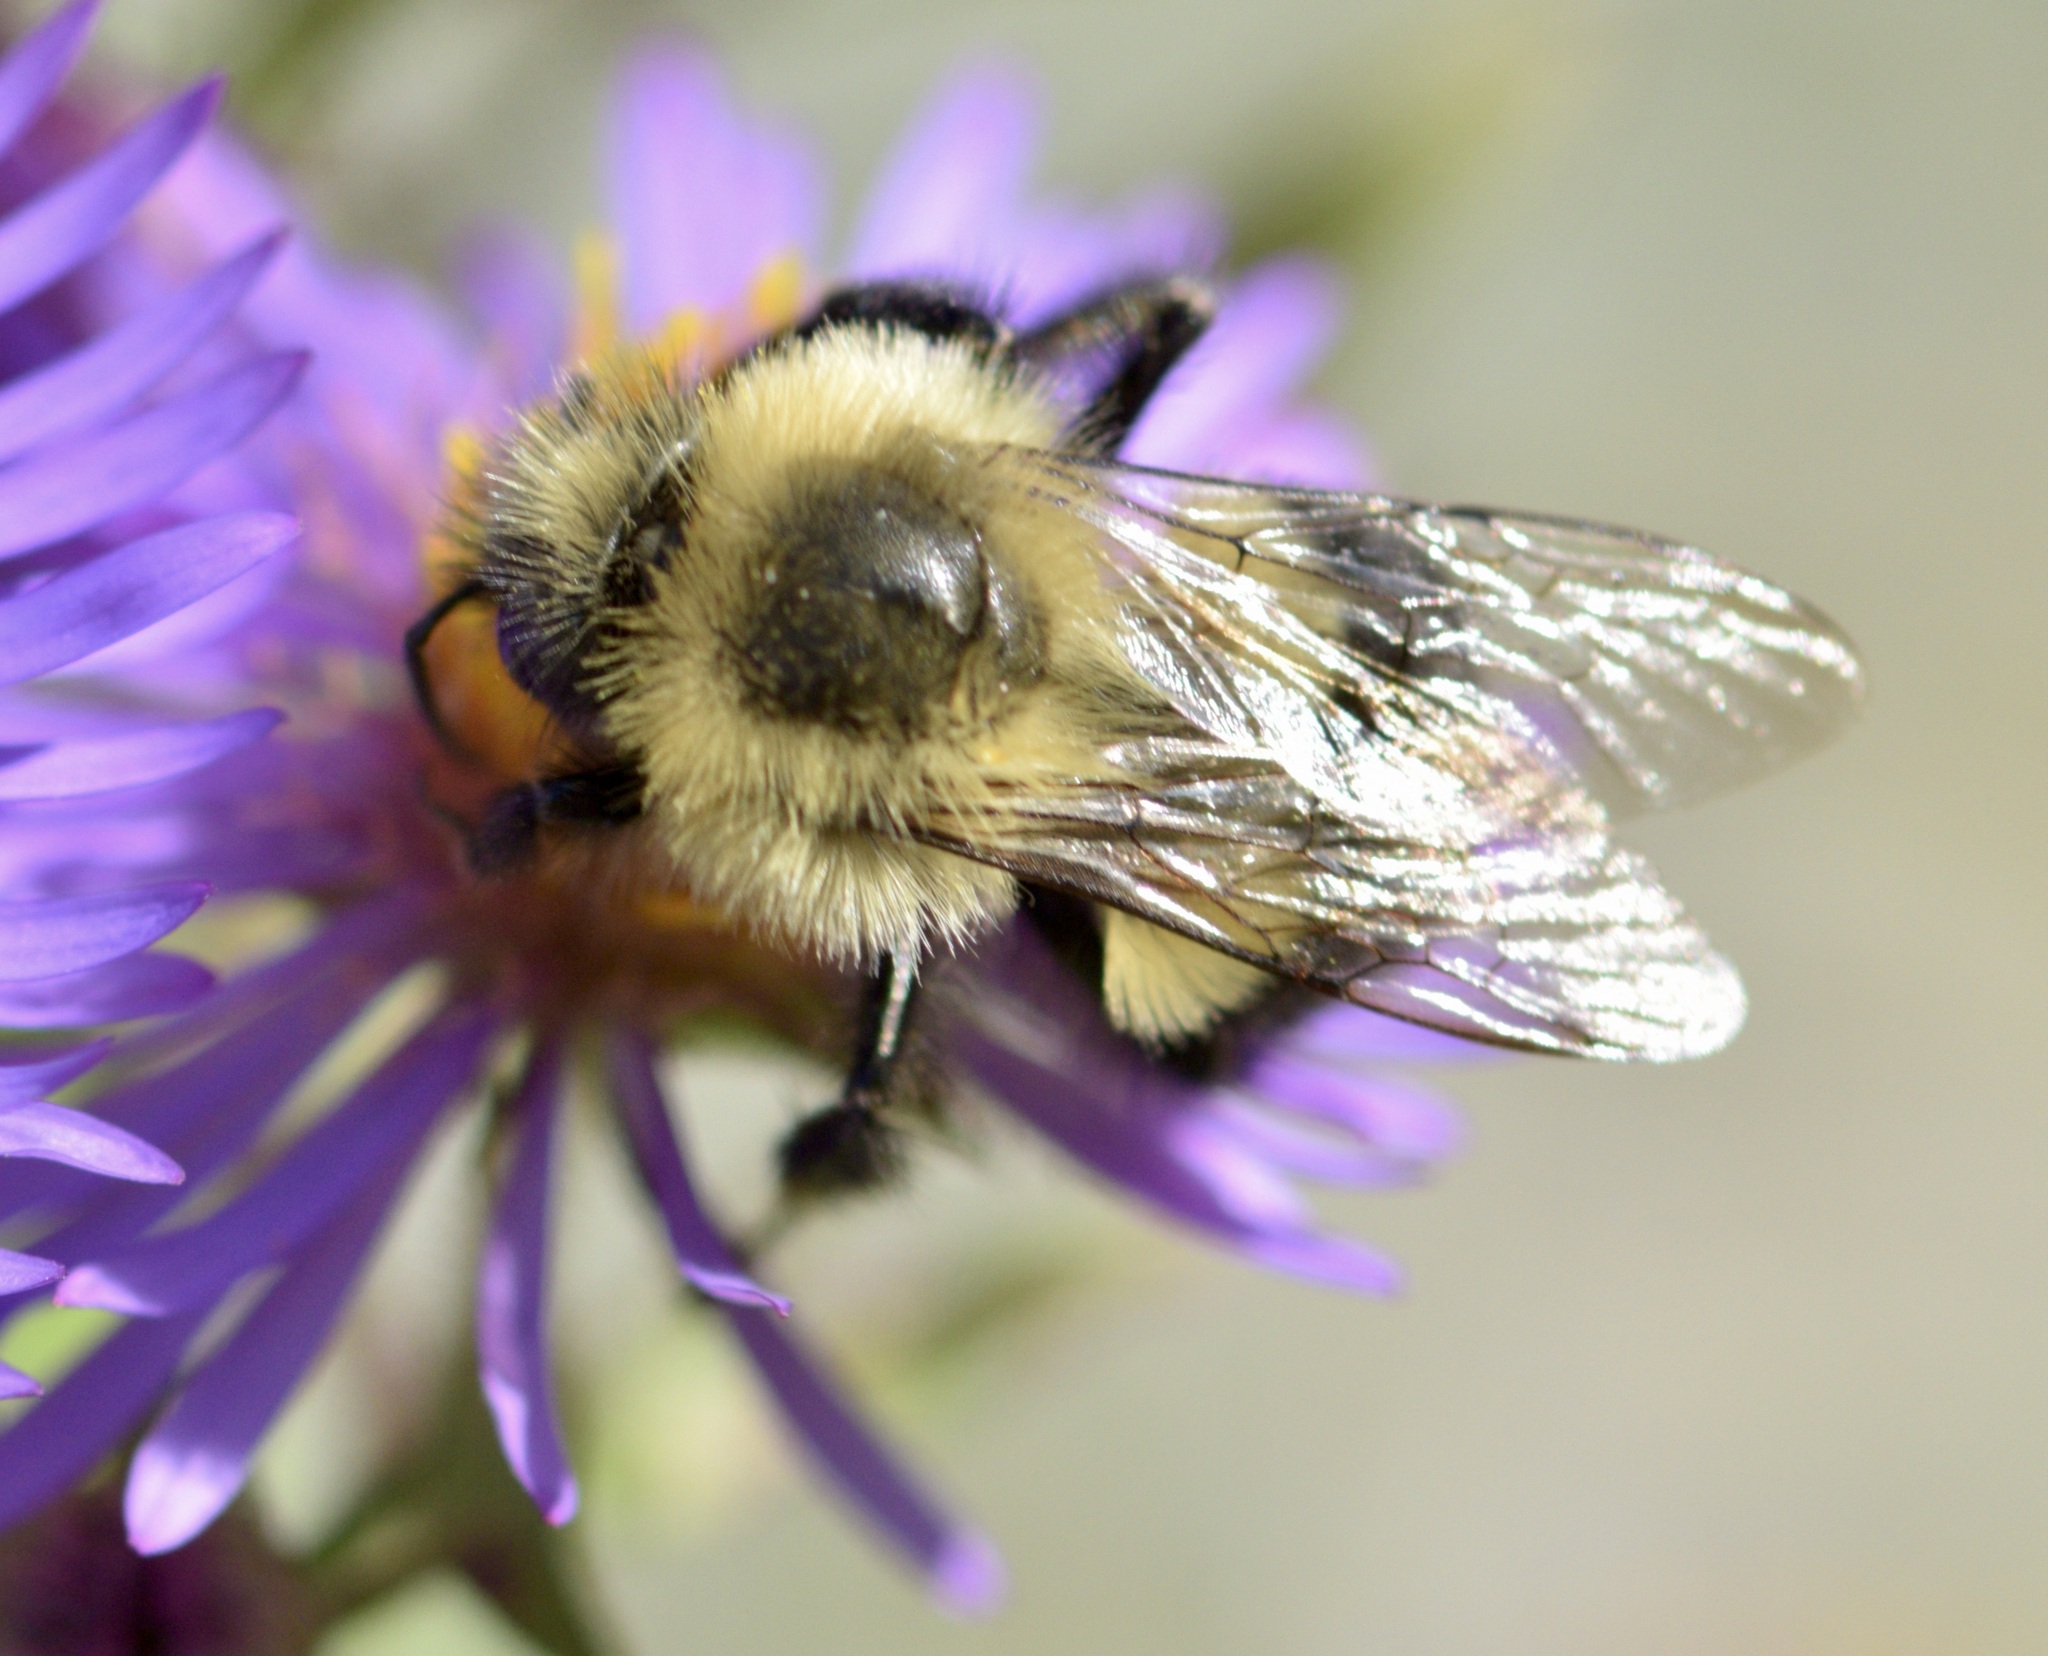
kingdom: Animalia
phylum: Arthropoda
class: Insecta
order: Hymenoptera
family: Apidae
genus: Bombus
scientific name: Bombus impatiens
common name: Common eastern bumble bee
